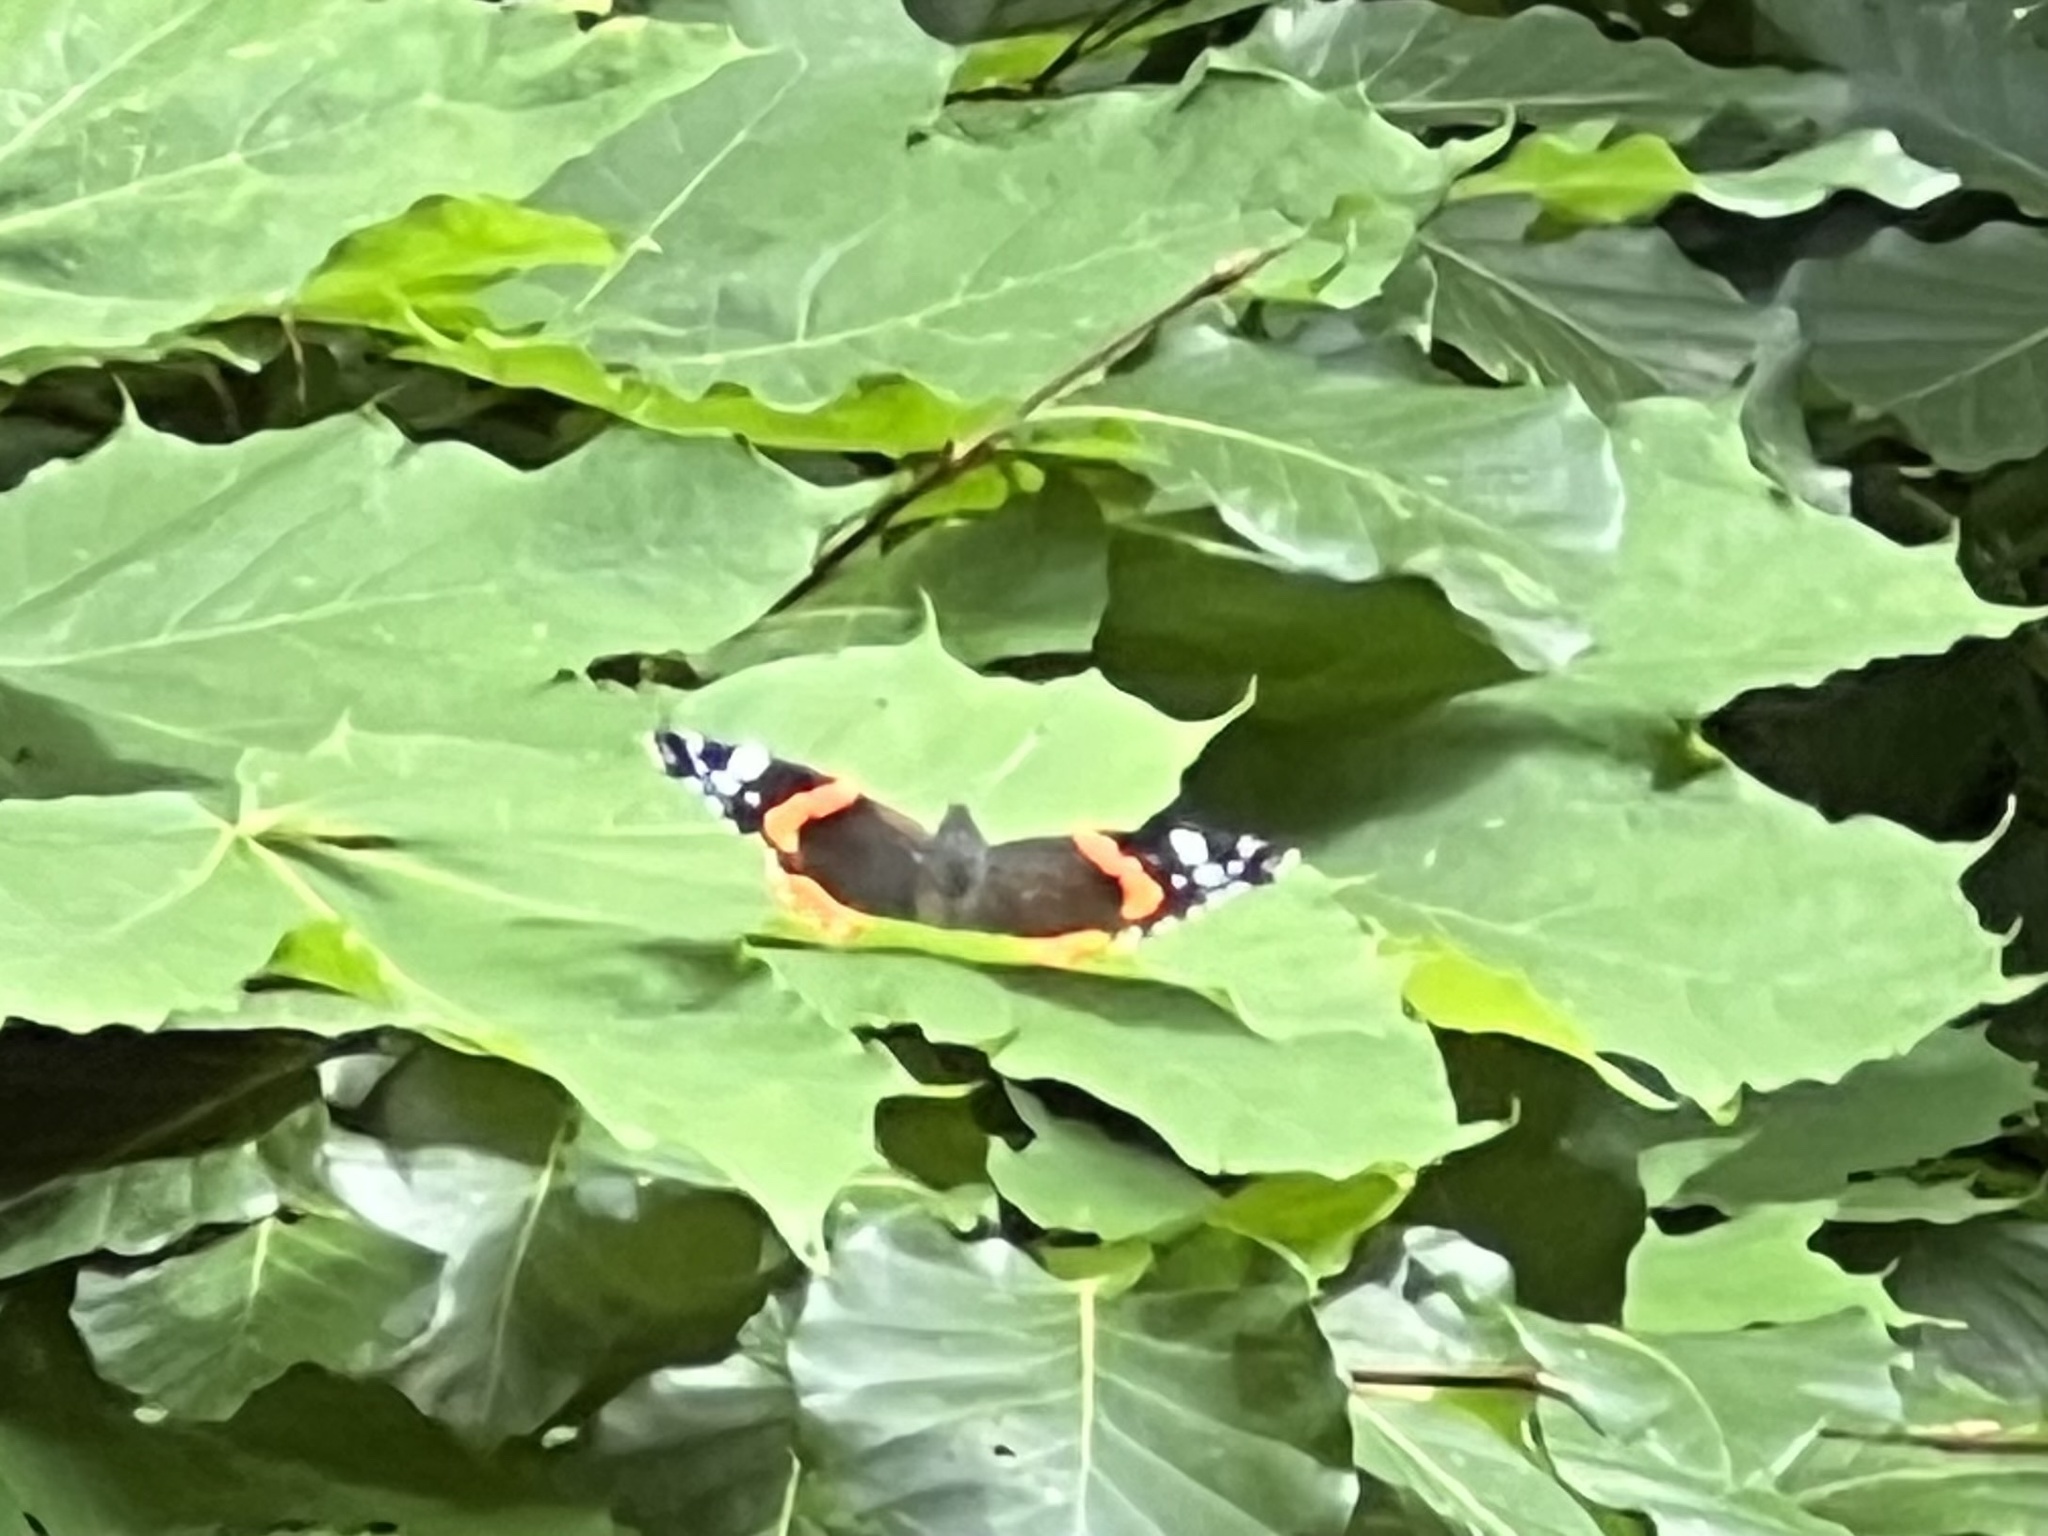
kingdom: Animalia
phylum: Arthropoda
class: Insecta
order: Lepidoptera
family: Nymphalidae
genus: Vanessa
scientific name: Vanessa atalanta
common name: Red admiral
